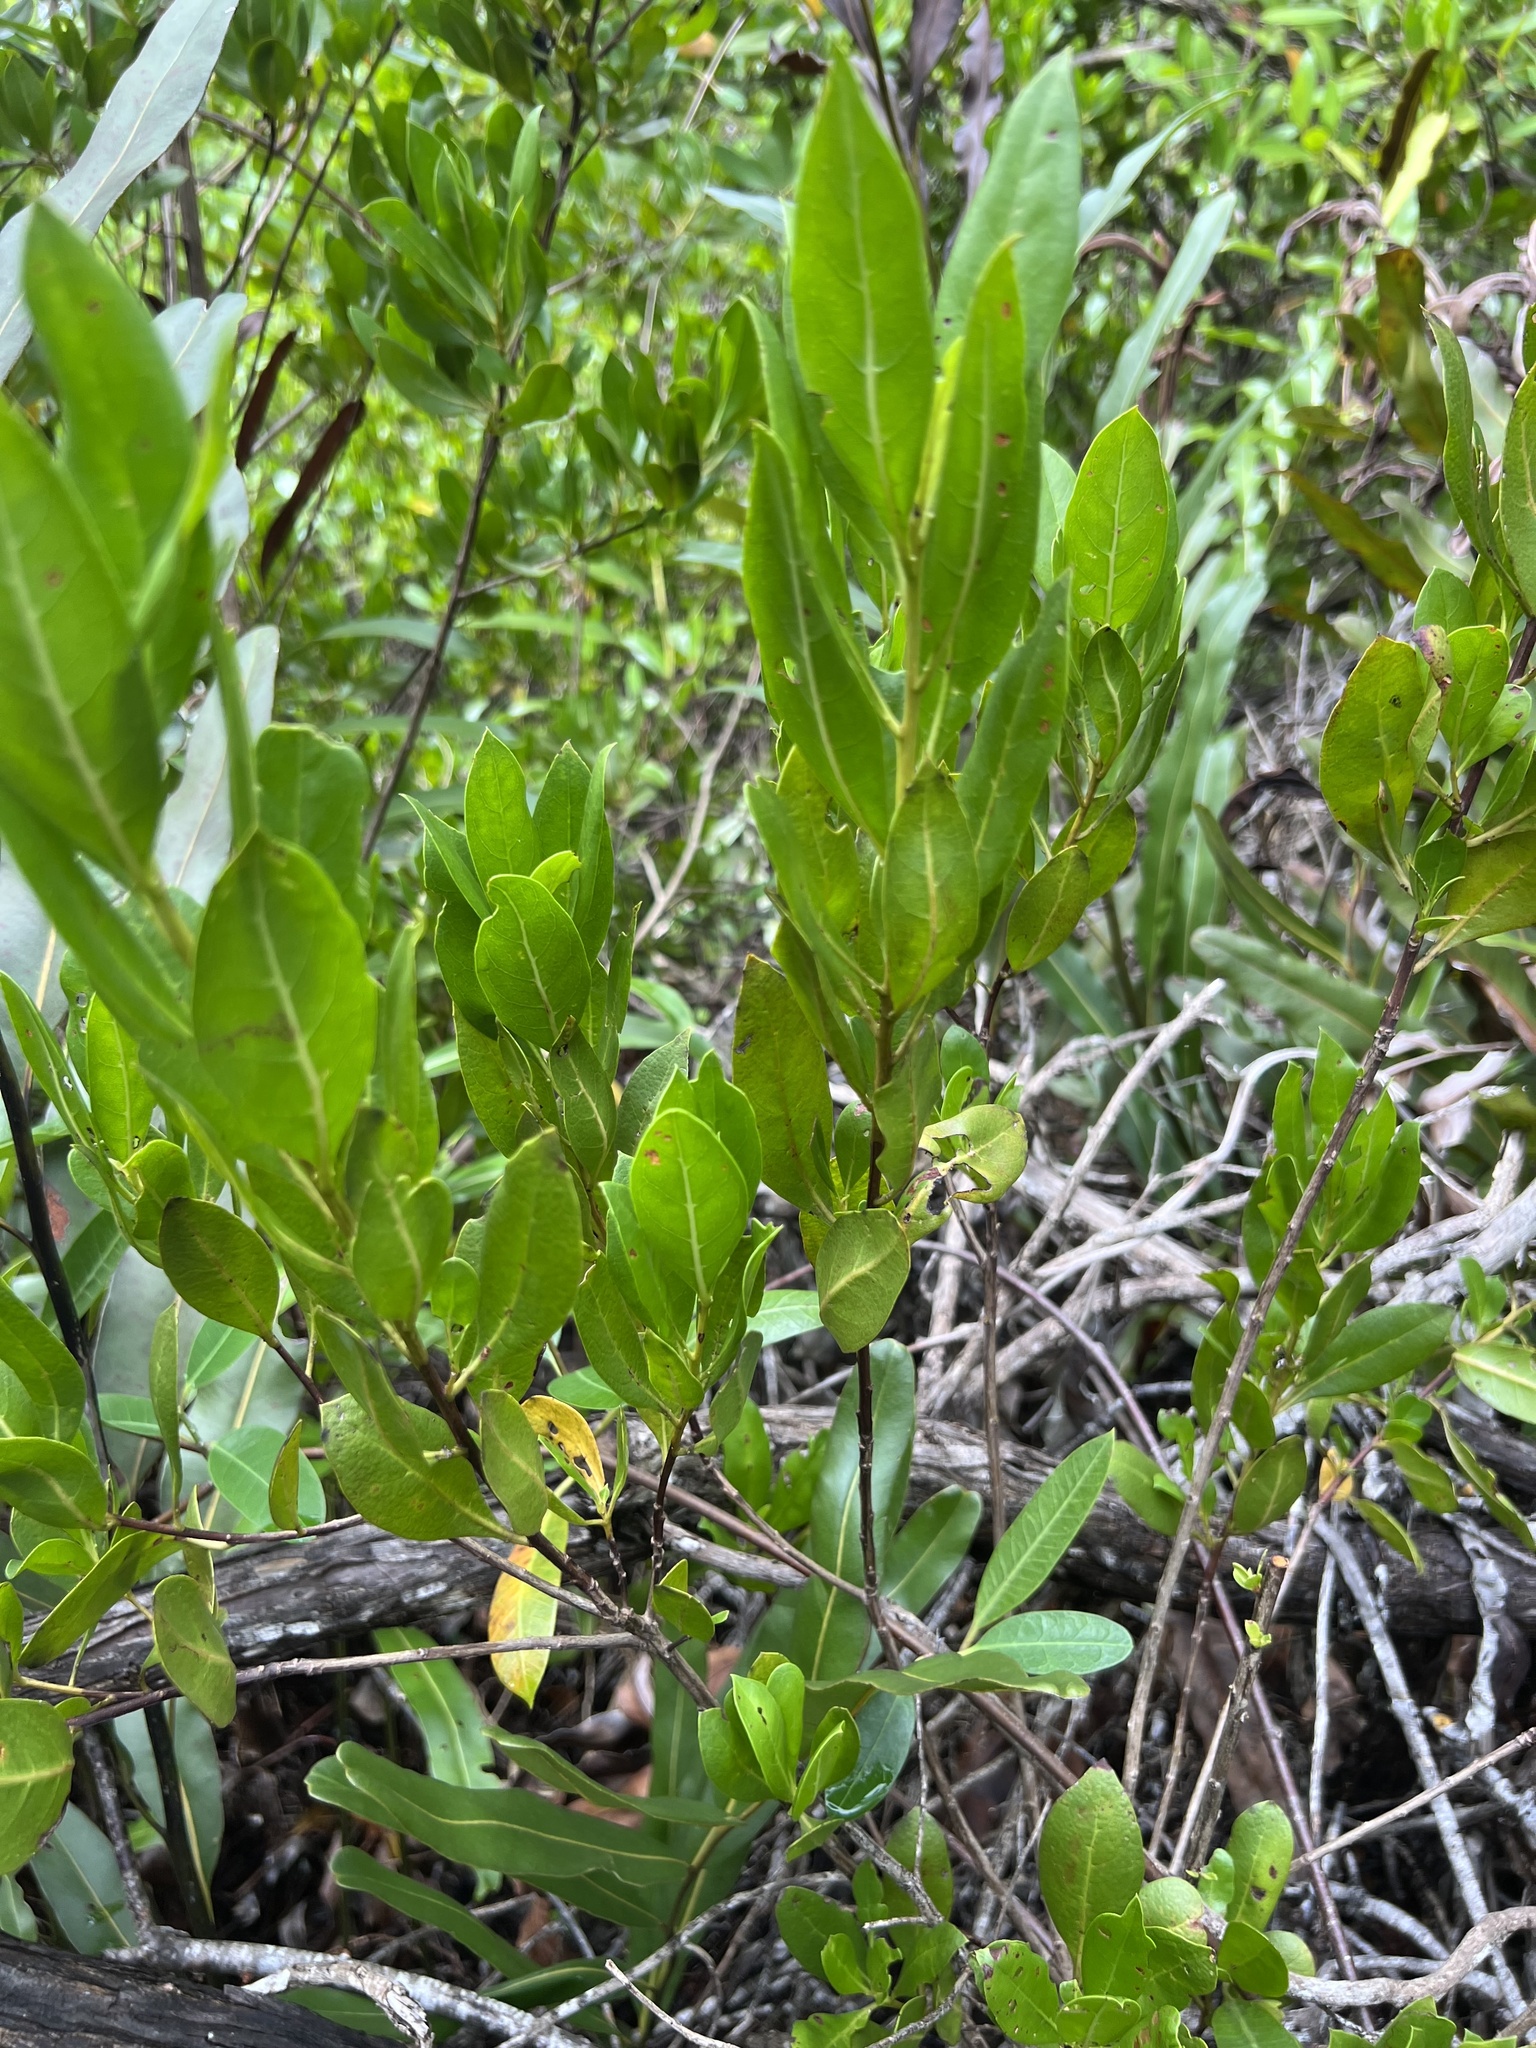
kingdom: Plantae
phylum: Tracheophyta
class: Magnoliopsida
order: Gentianales
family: Apocynaceae
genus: Rhabdadenia
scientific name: Rhabdadenia biflora
